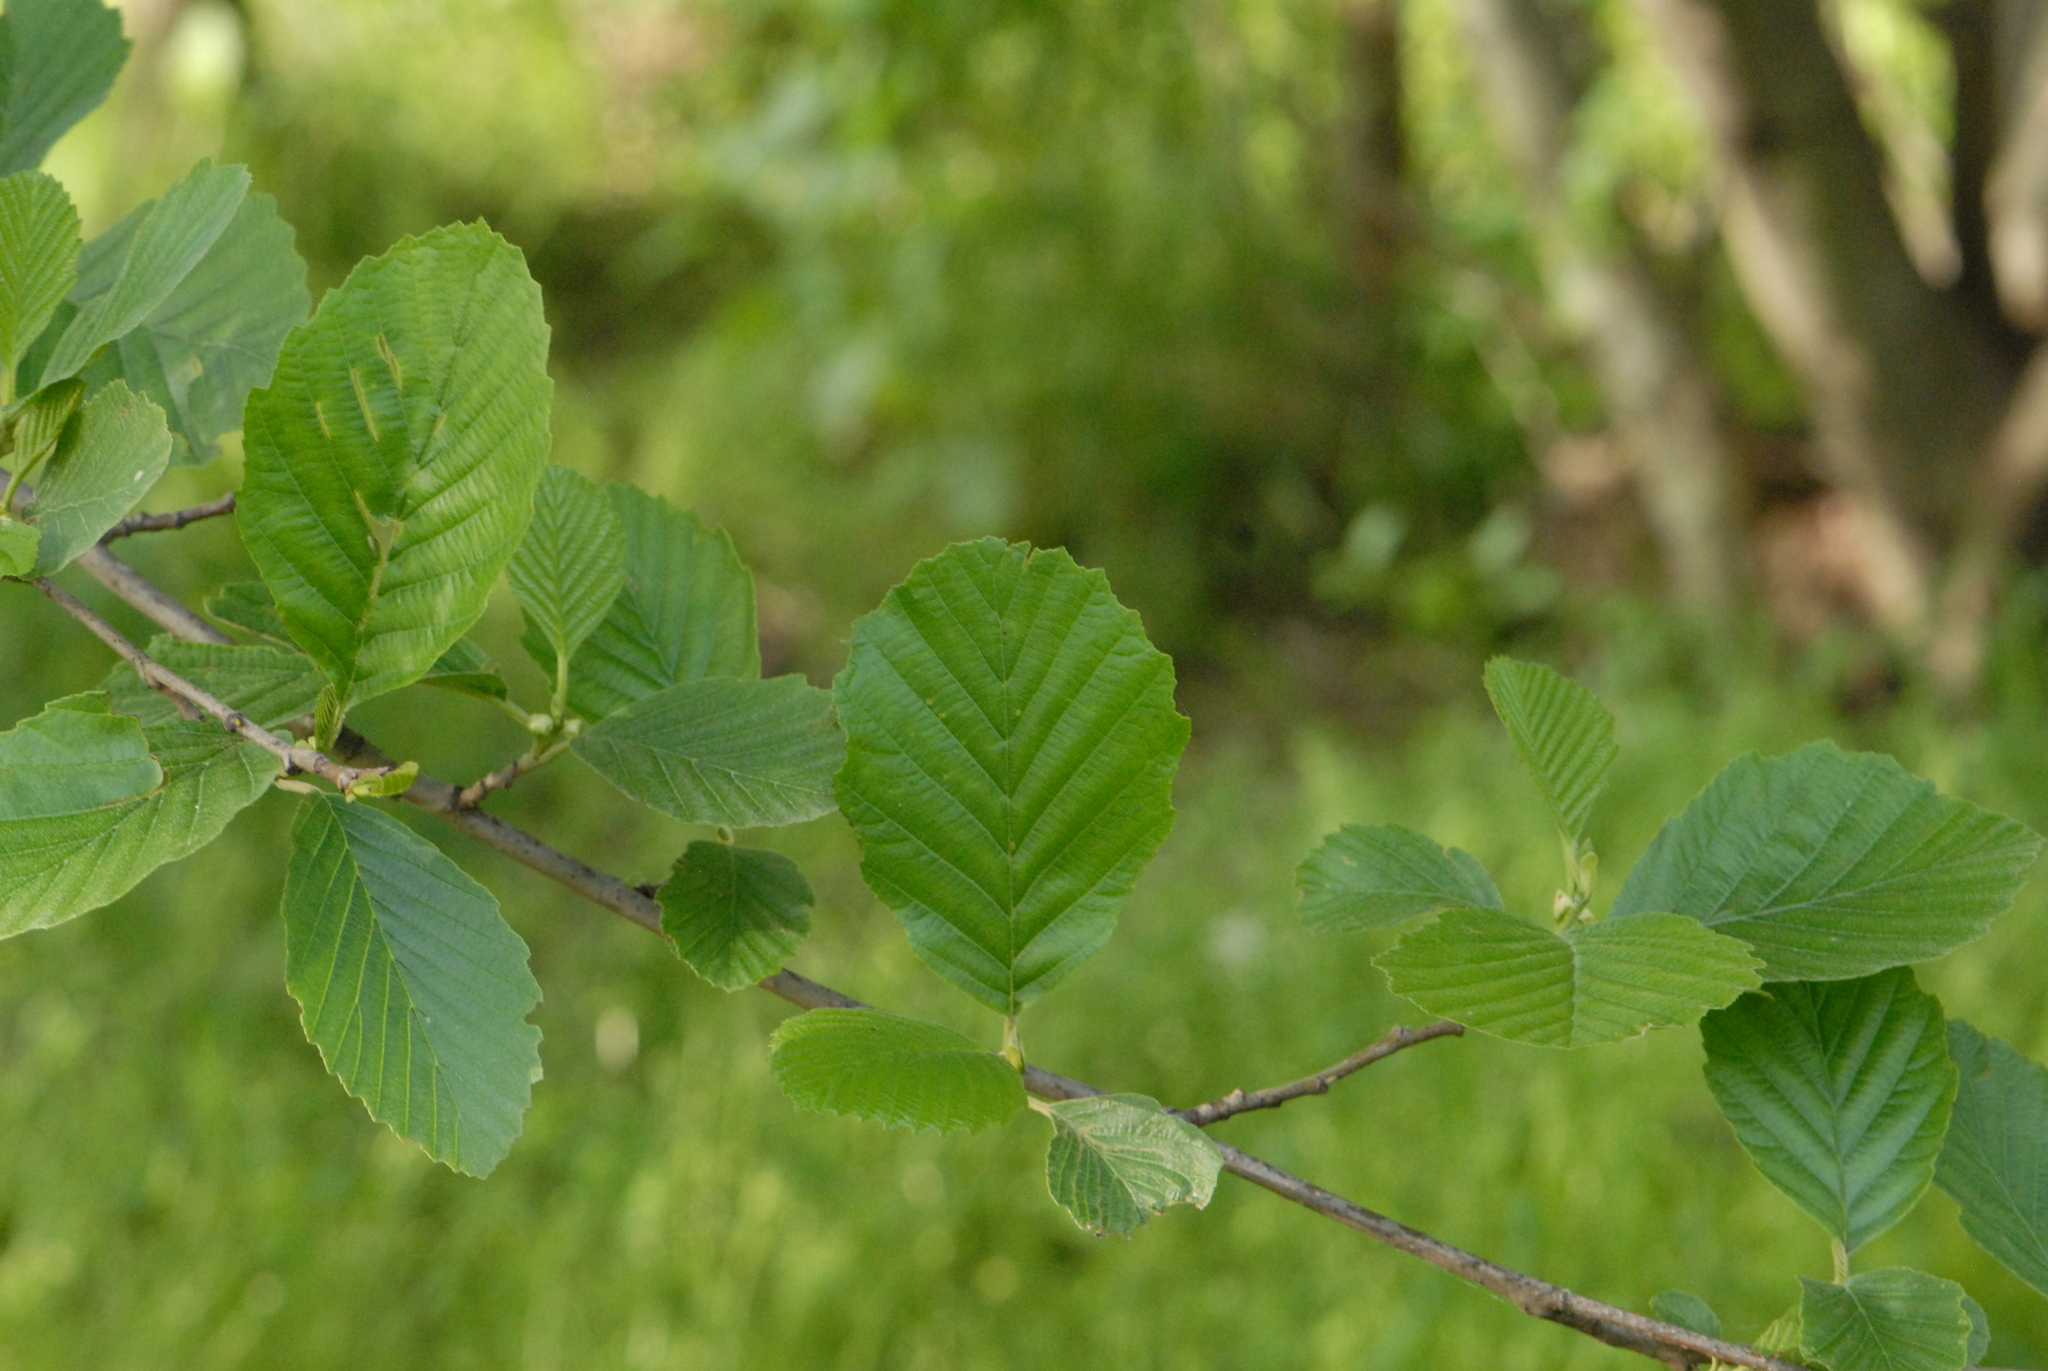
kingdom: Plantae
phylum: Tracheophyta
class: Magnoliopsida
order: Fagales
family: Betulaceae
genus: Alnus
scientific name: Alnus glutinosa
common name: Black alder
